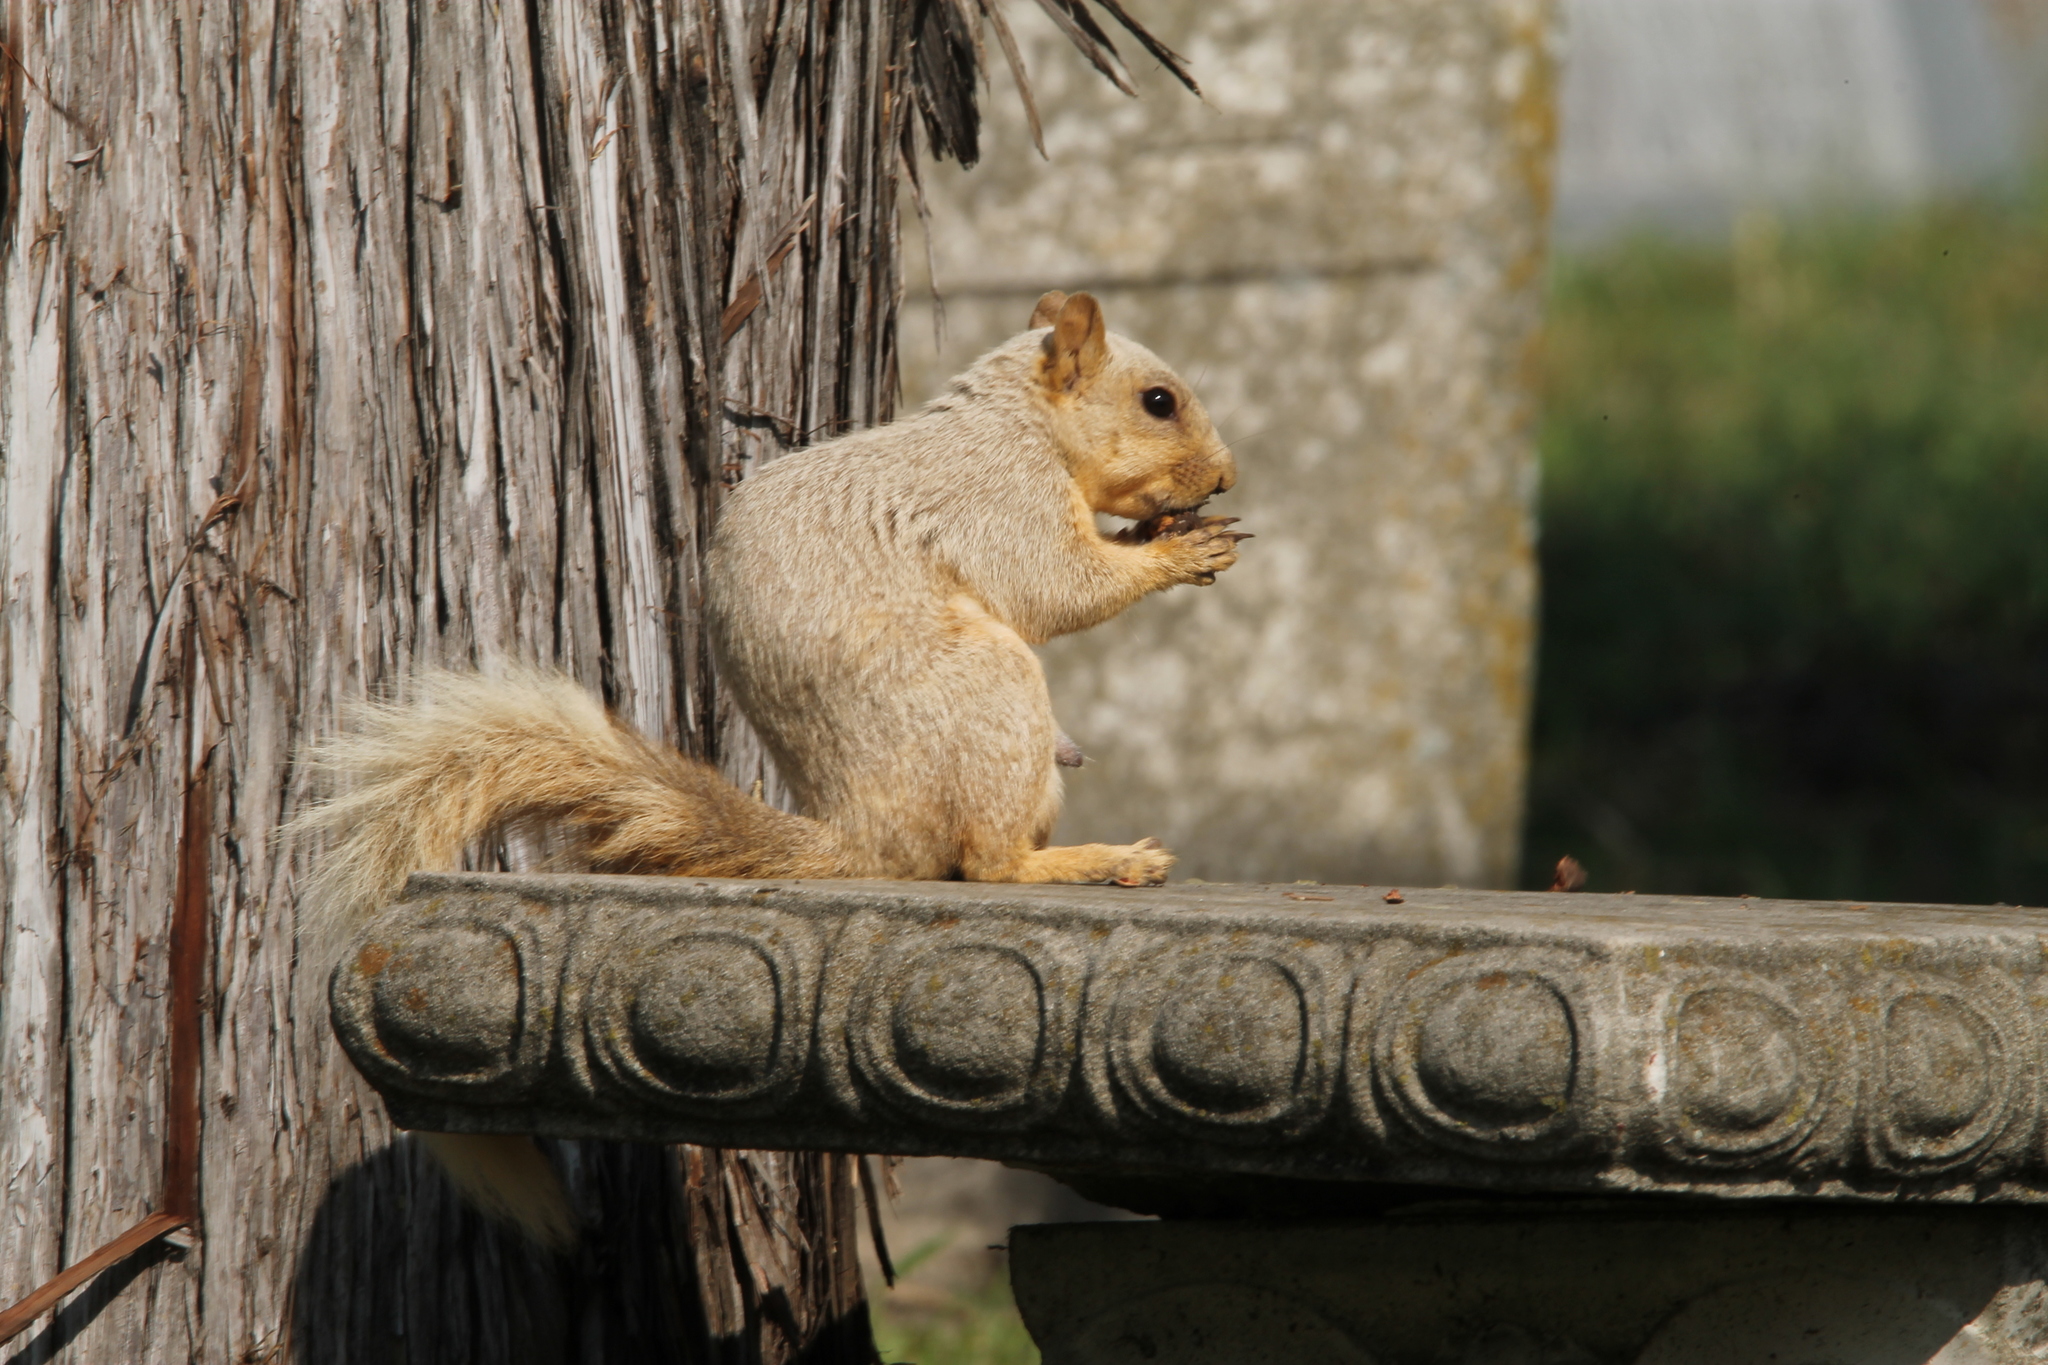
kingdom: Animalia
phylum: Chordata
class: Mammalia
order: Rodentia
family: Sciuridae
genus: Sciurus
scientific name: Sciurus niger
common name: Fox squirrel
